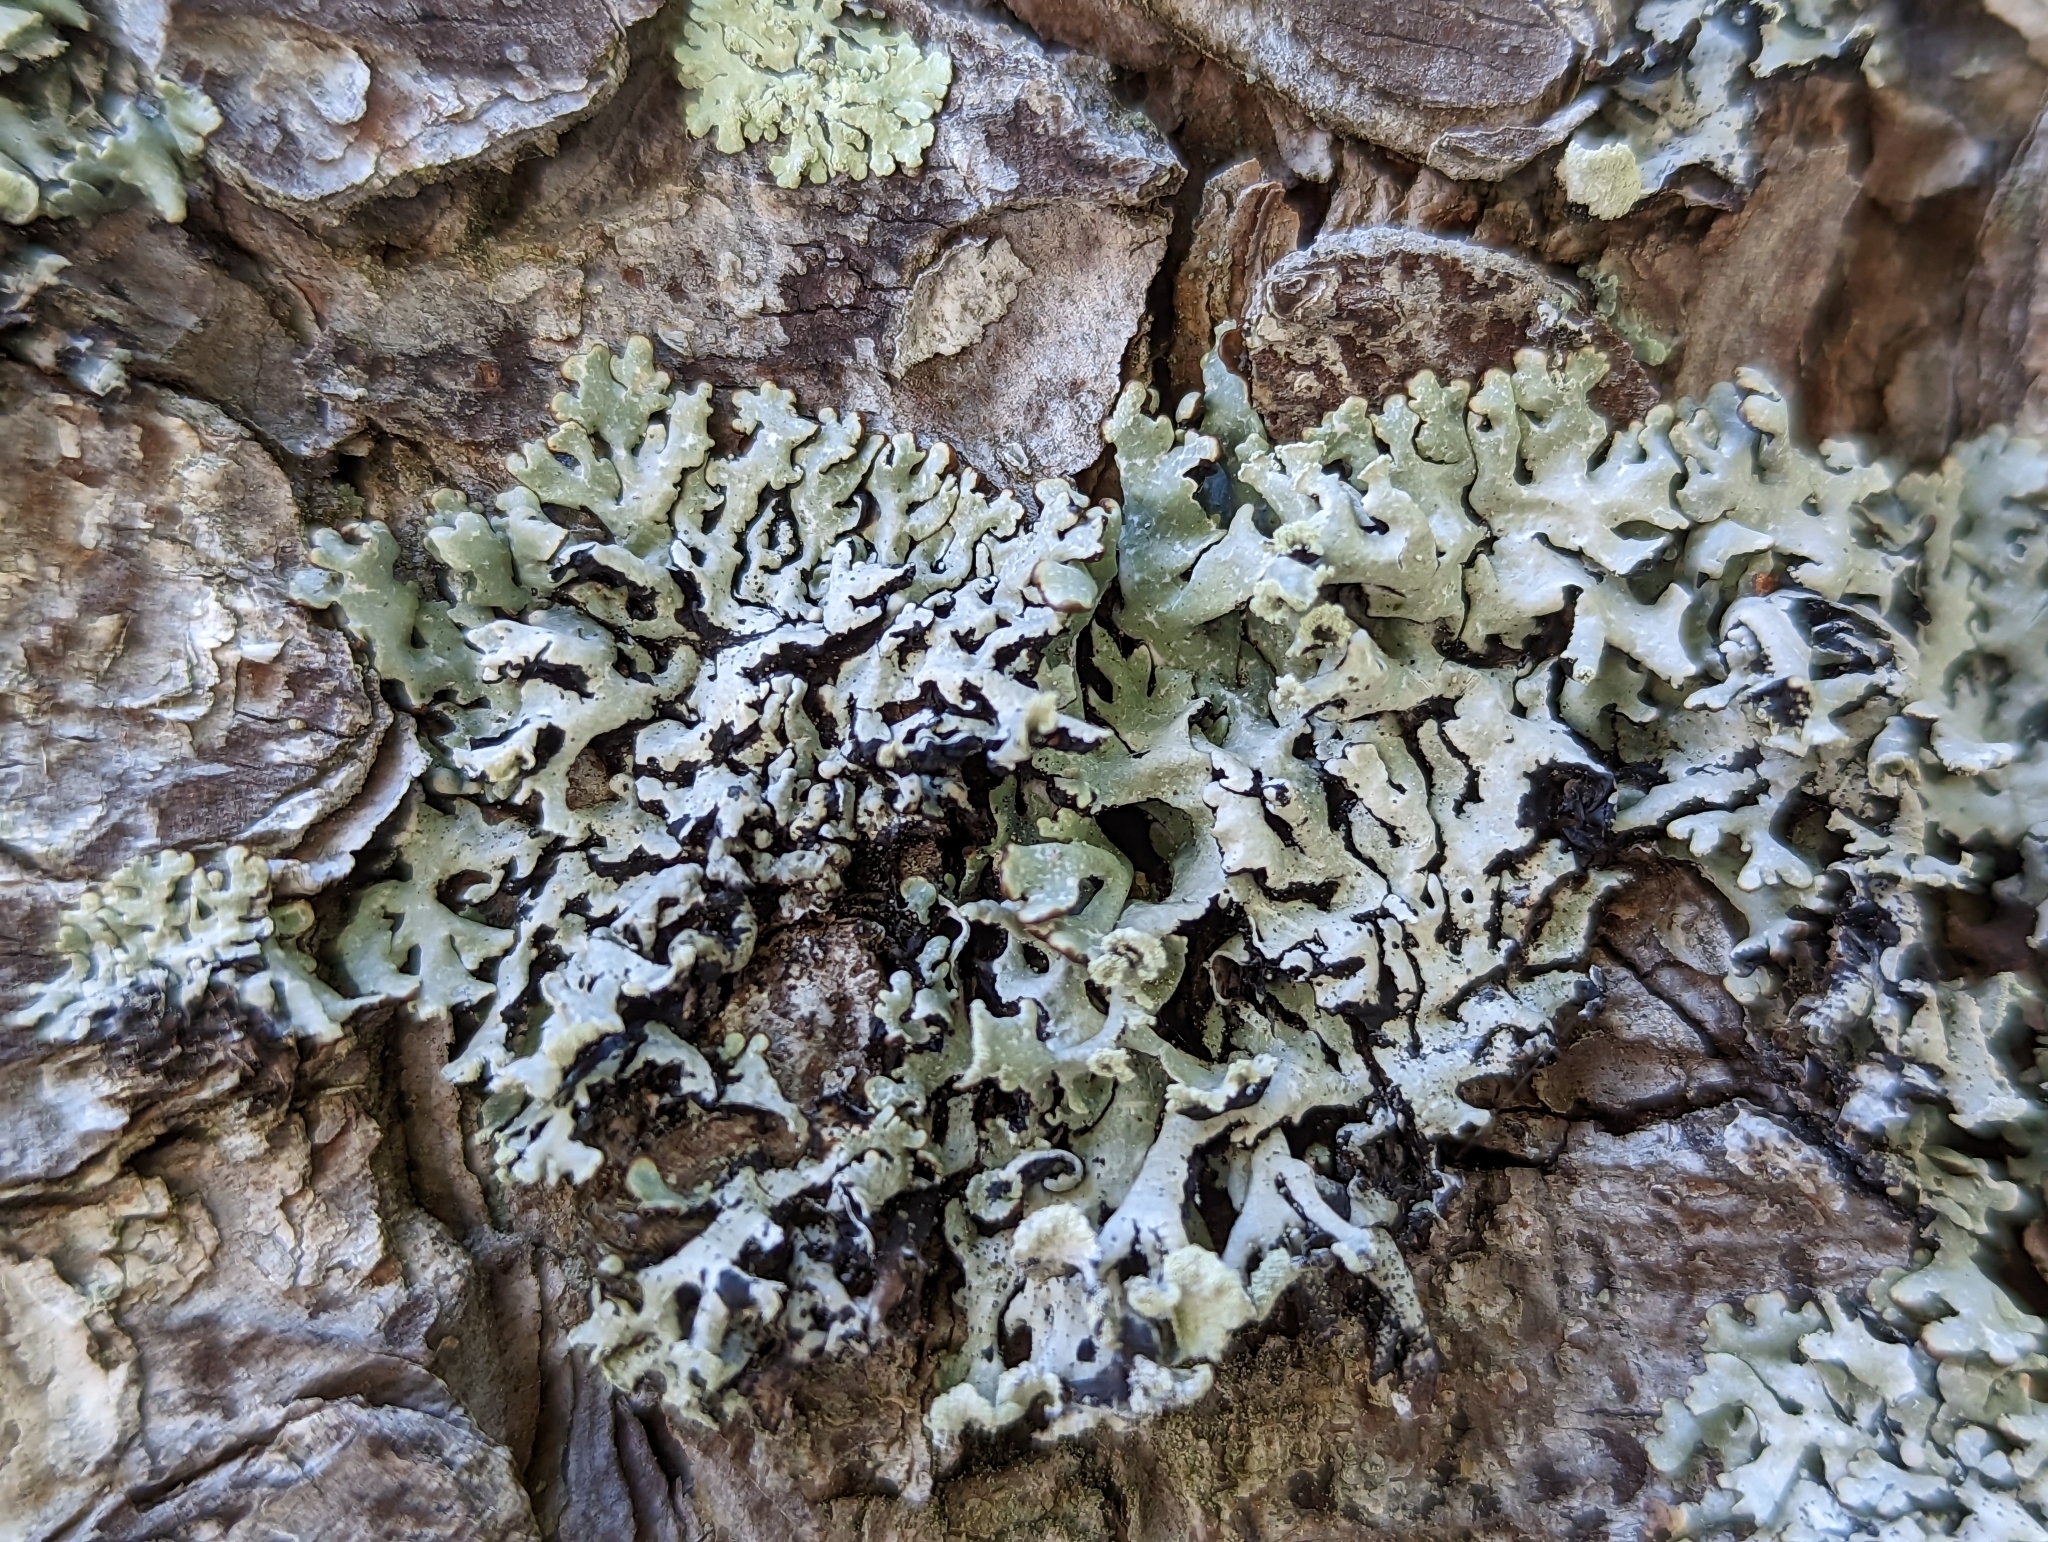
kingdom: Fungi
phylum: Ascomycota
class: Lecanoromycetes
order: Lecanorales
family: Parmeliaceae
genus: Hypogymnia
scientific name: Hypogymnia physodes
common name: Dark crottle
